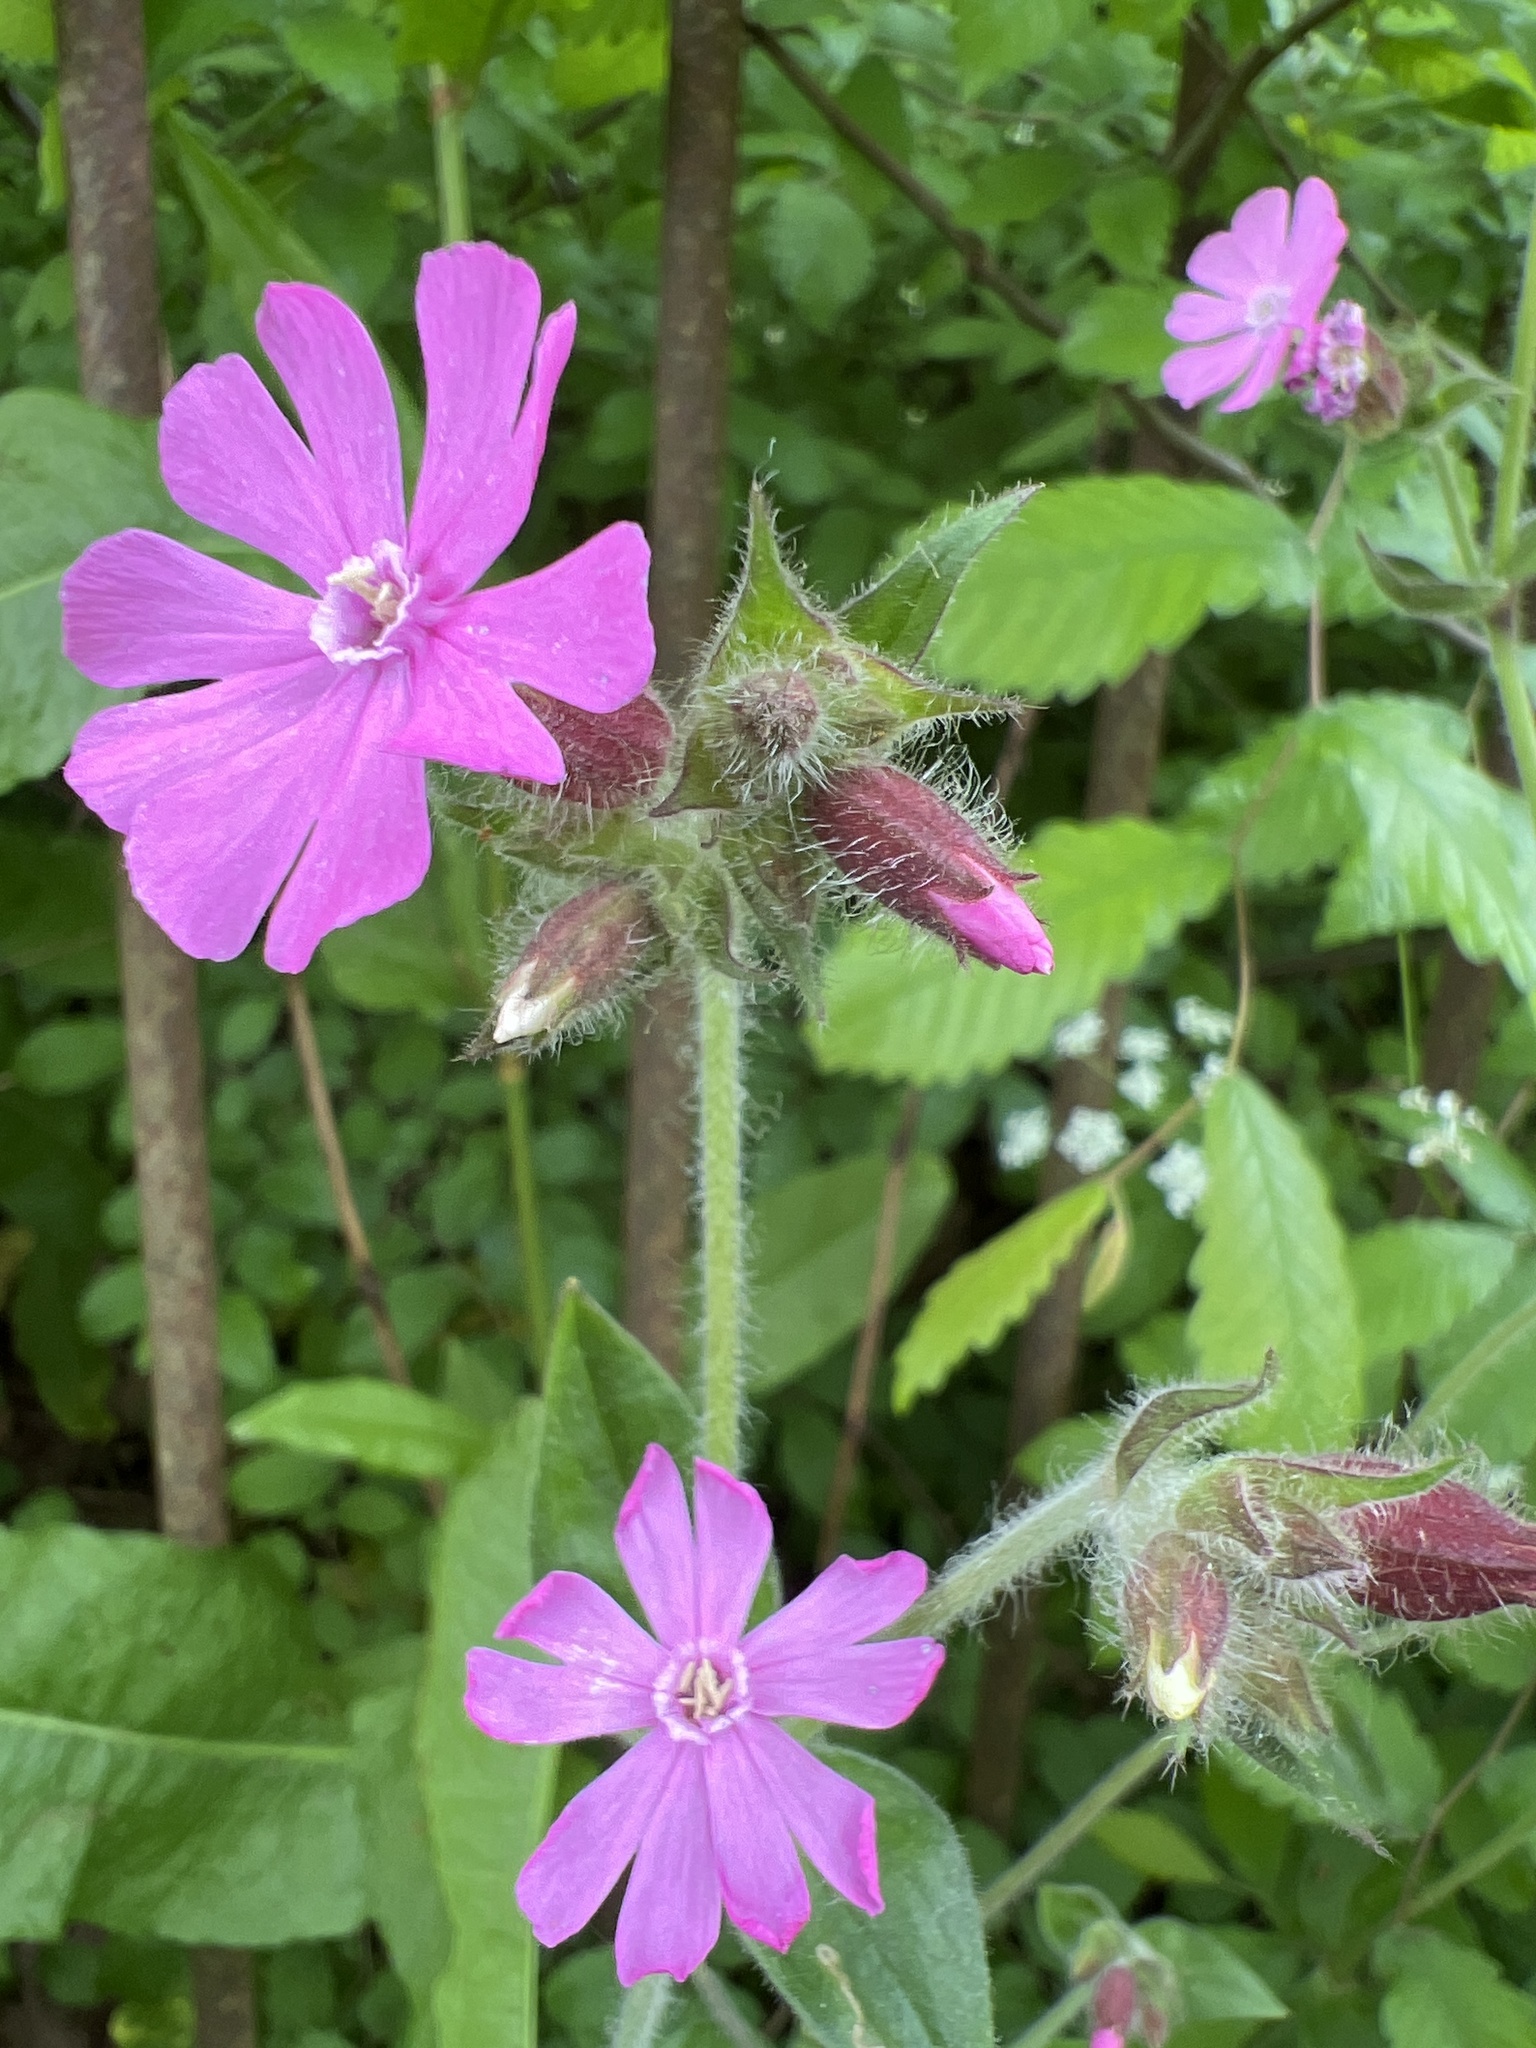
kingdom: Plantae
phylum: Tracheophyta
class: Magnoliopsida
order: Caryophyllales
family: Caryophyllaceae
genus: Silene
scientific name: Silene dioica
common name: Red campion
